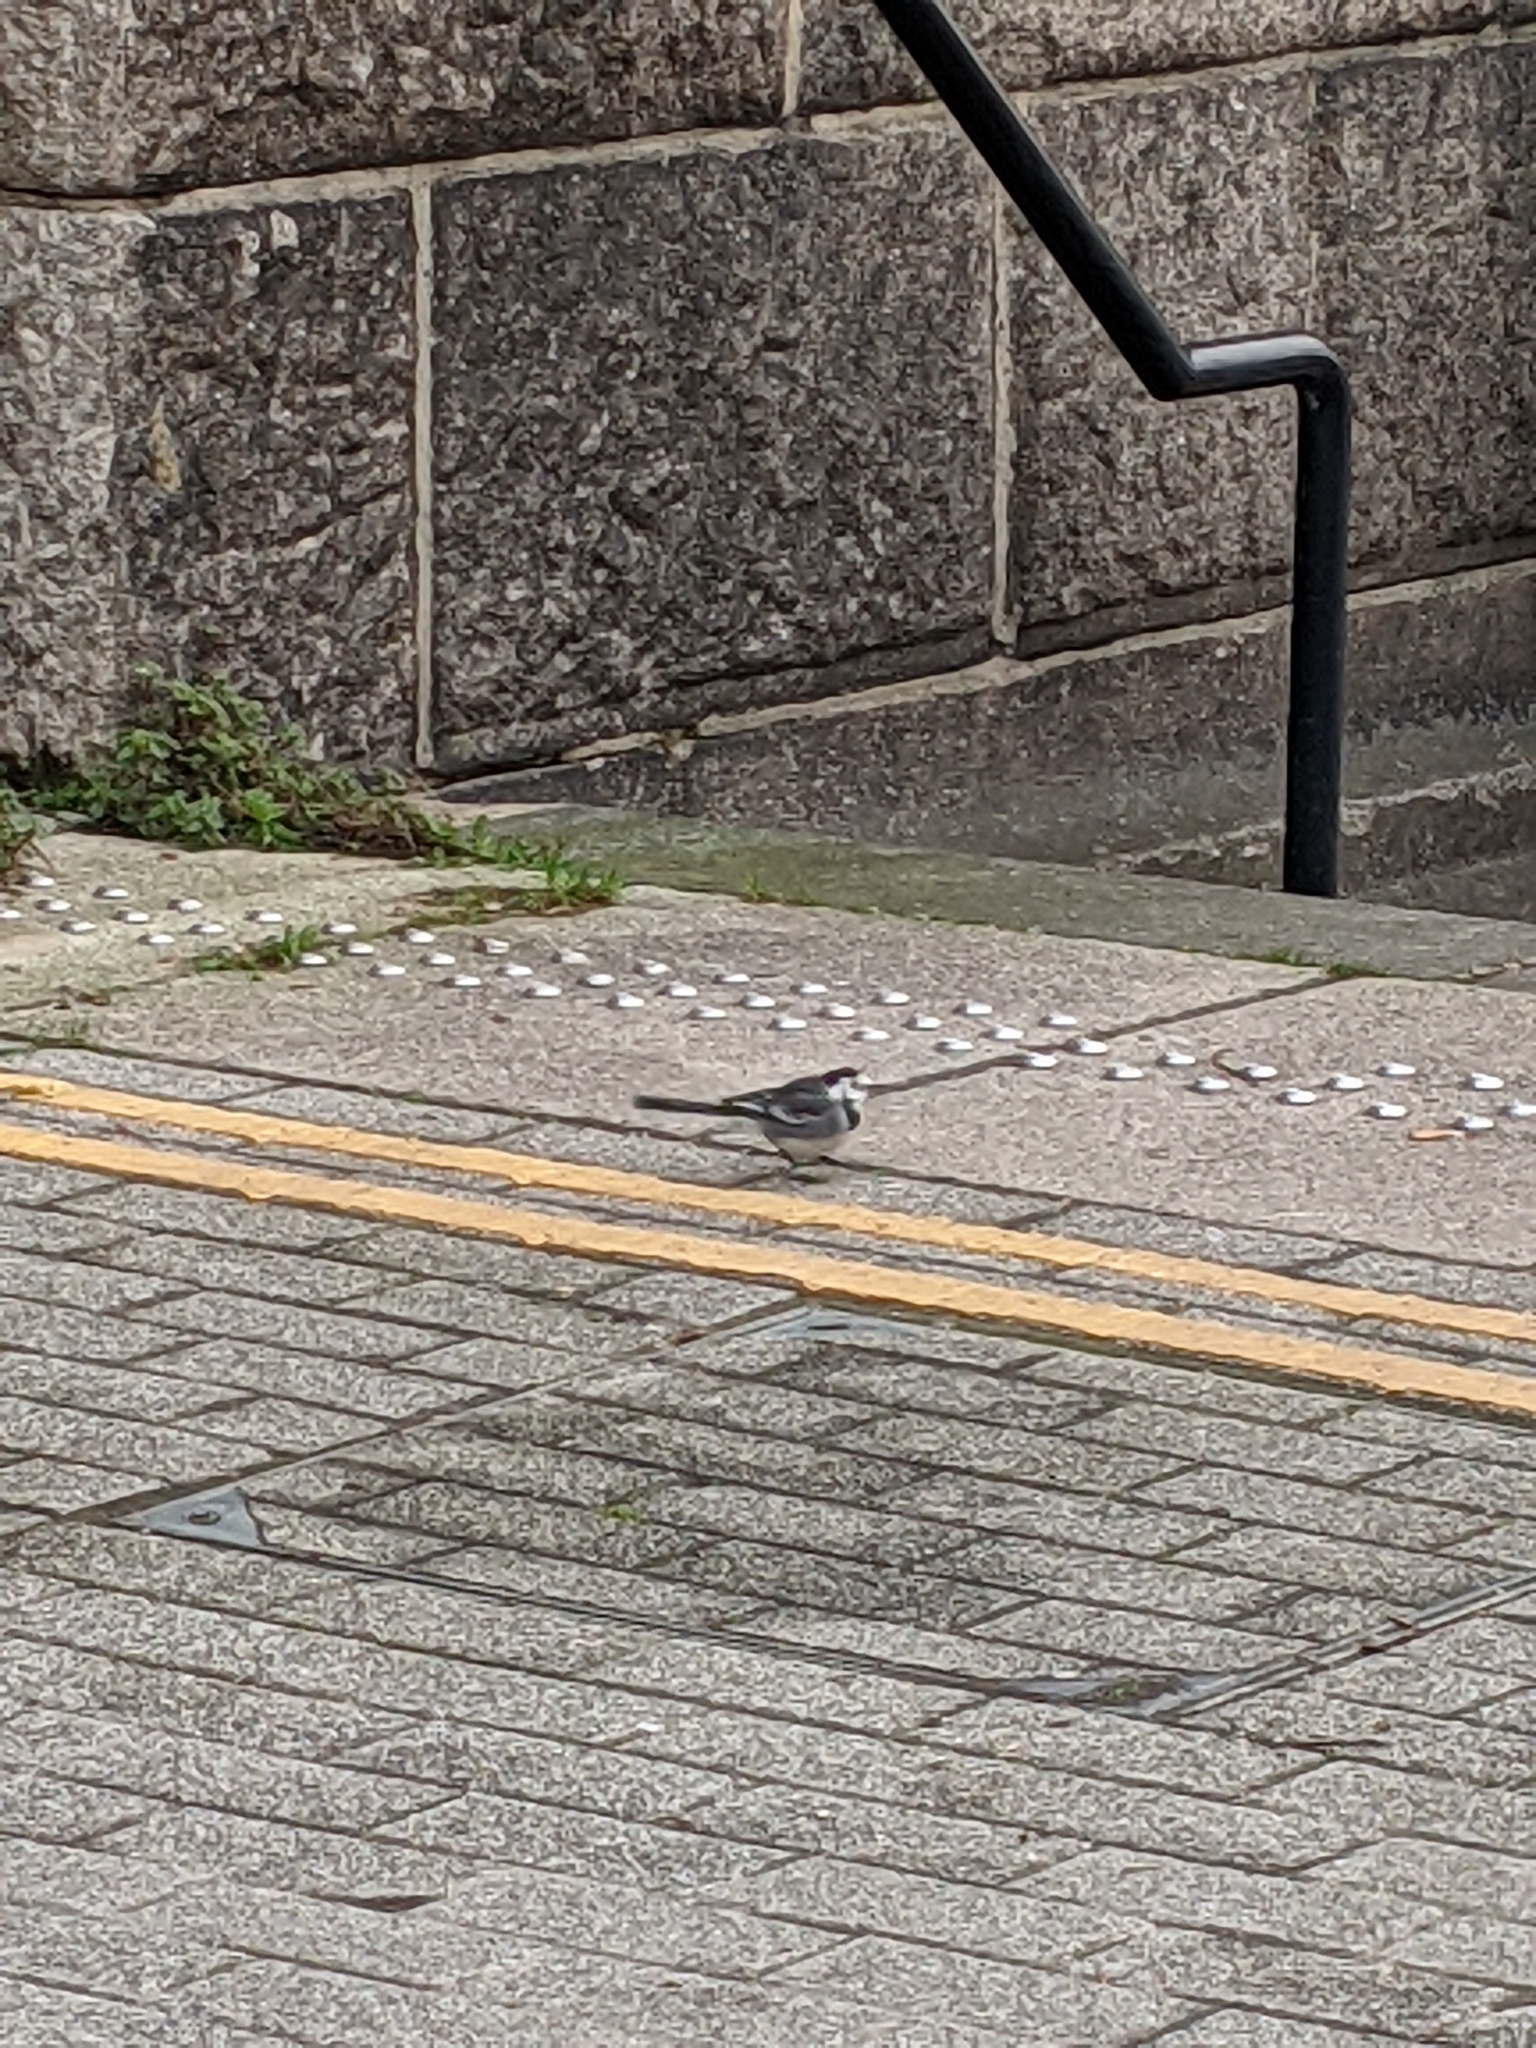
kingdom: Animalia
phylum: Chordata
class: Aves
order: Passeriformes
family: Motacillidae
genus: Motacilla
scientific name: Motacilla alba
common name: White wagtail
